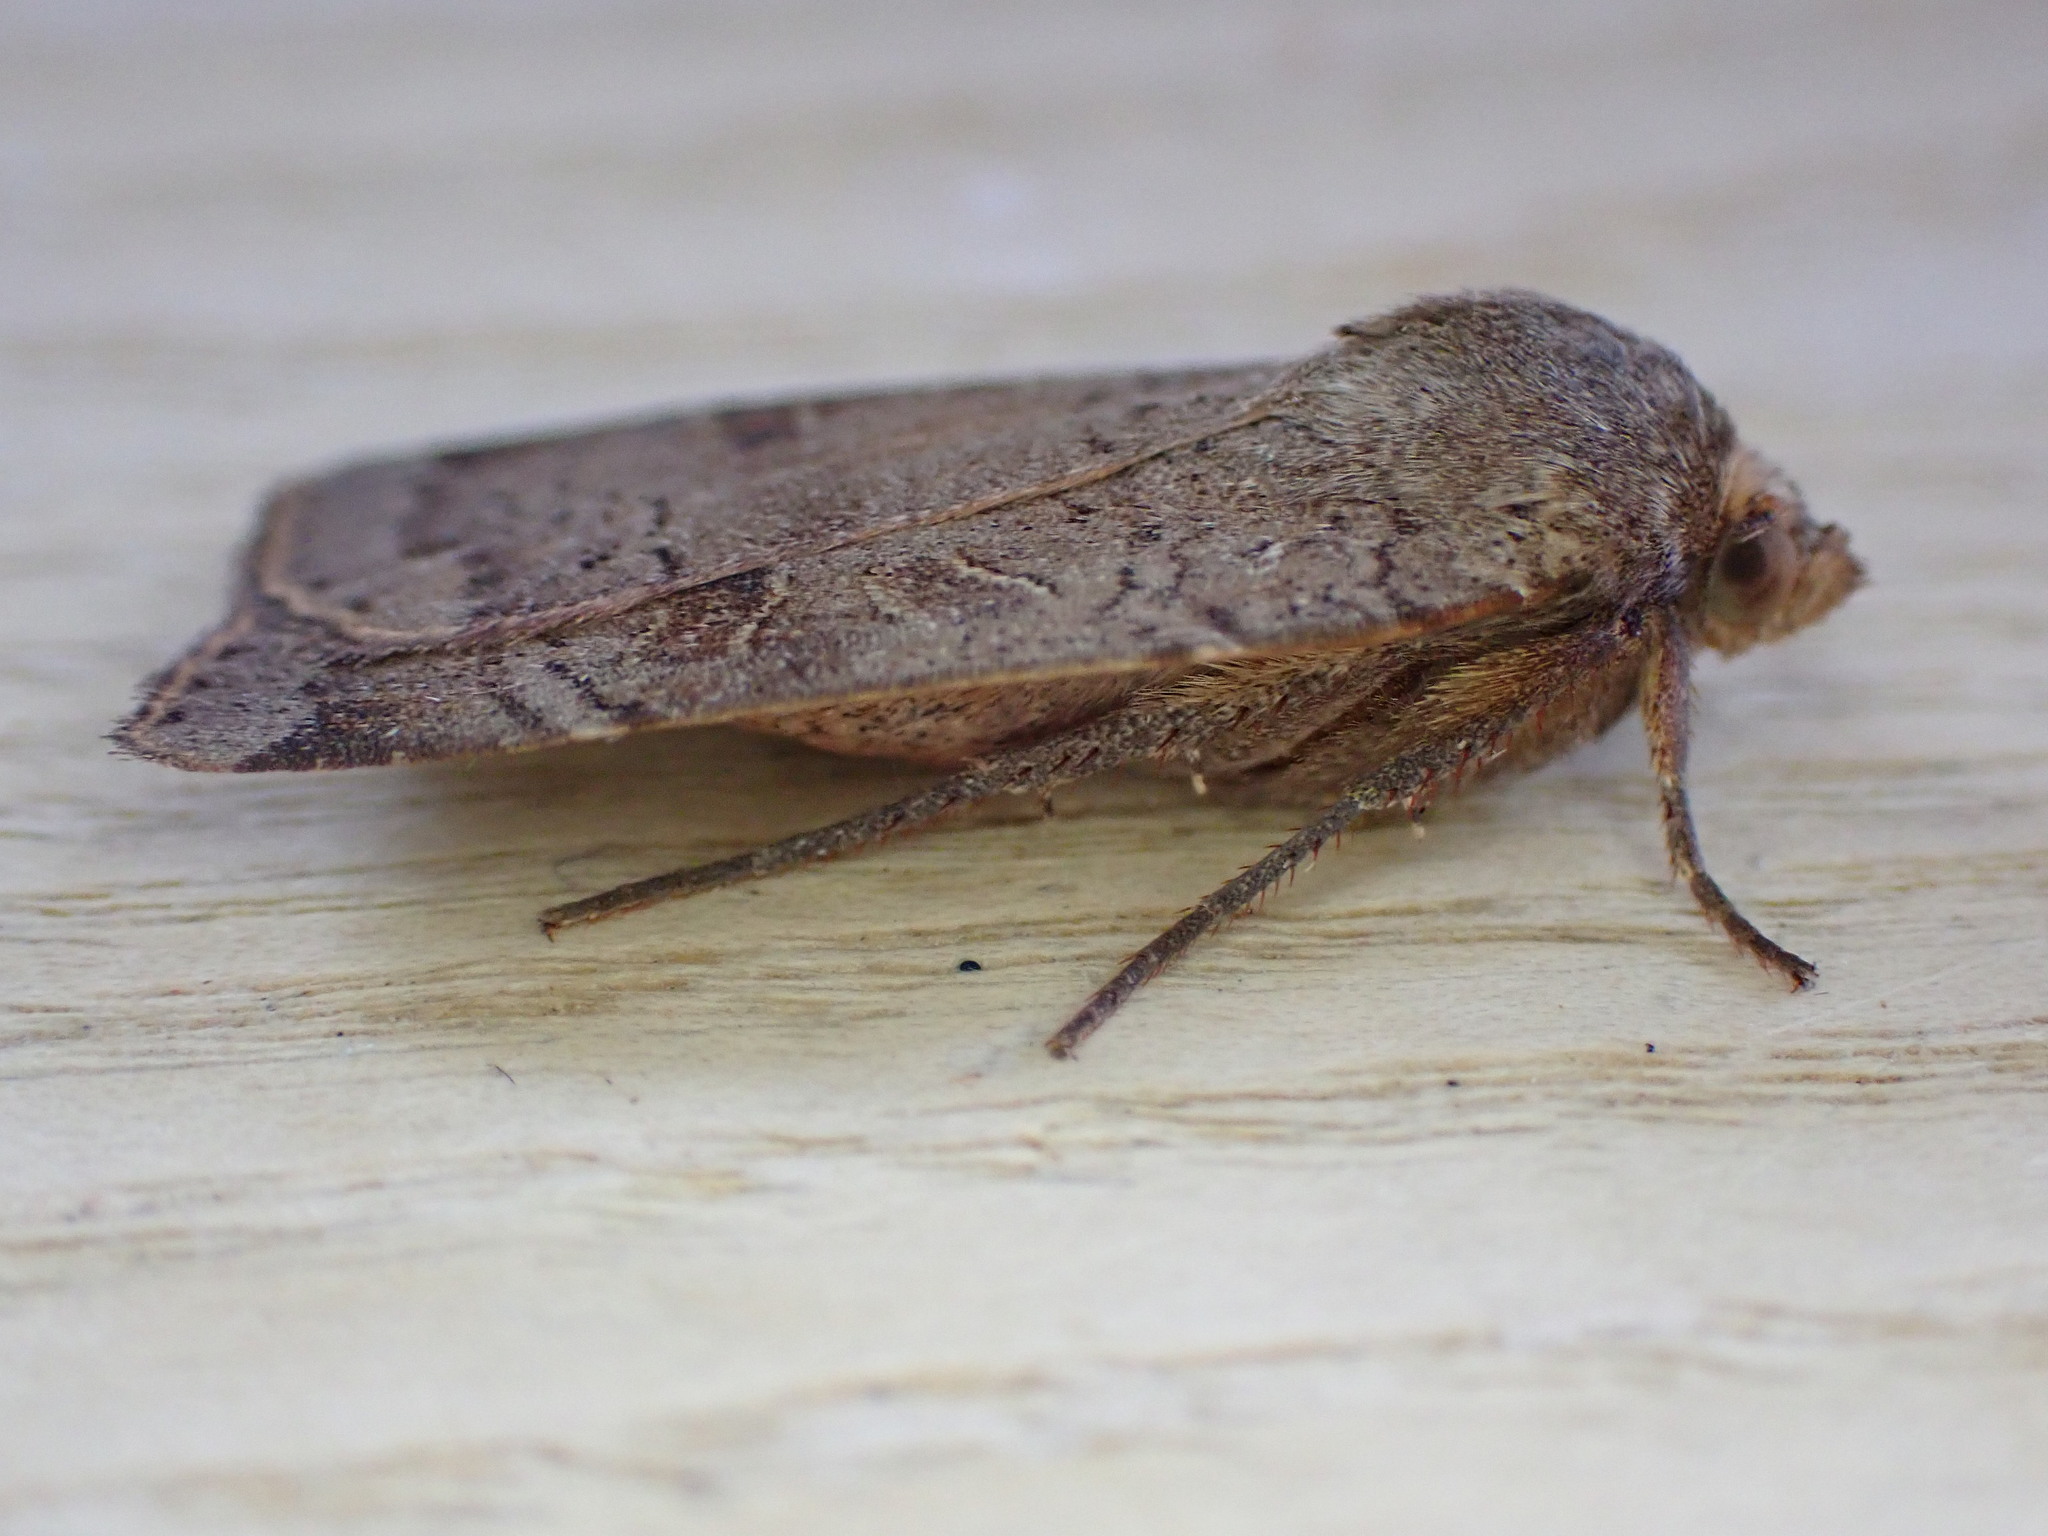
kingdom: Animalia
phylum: Arthropoda
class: Insecta
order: Lepidoptera
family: Noctuidae
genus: Noctua
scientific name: Noctua pronuba
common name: Large yellow underwing
